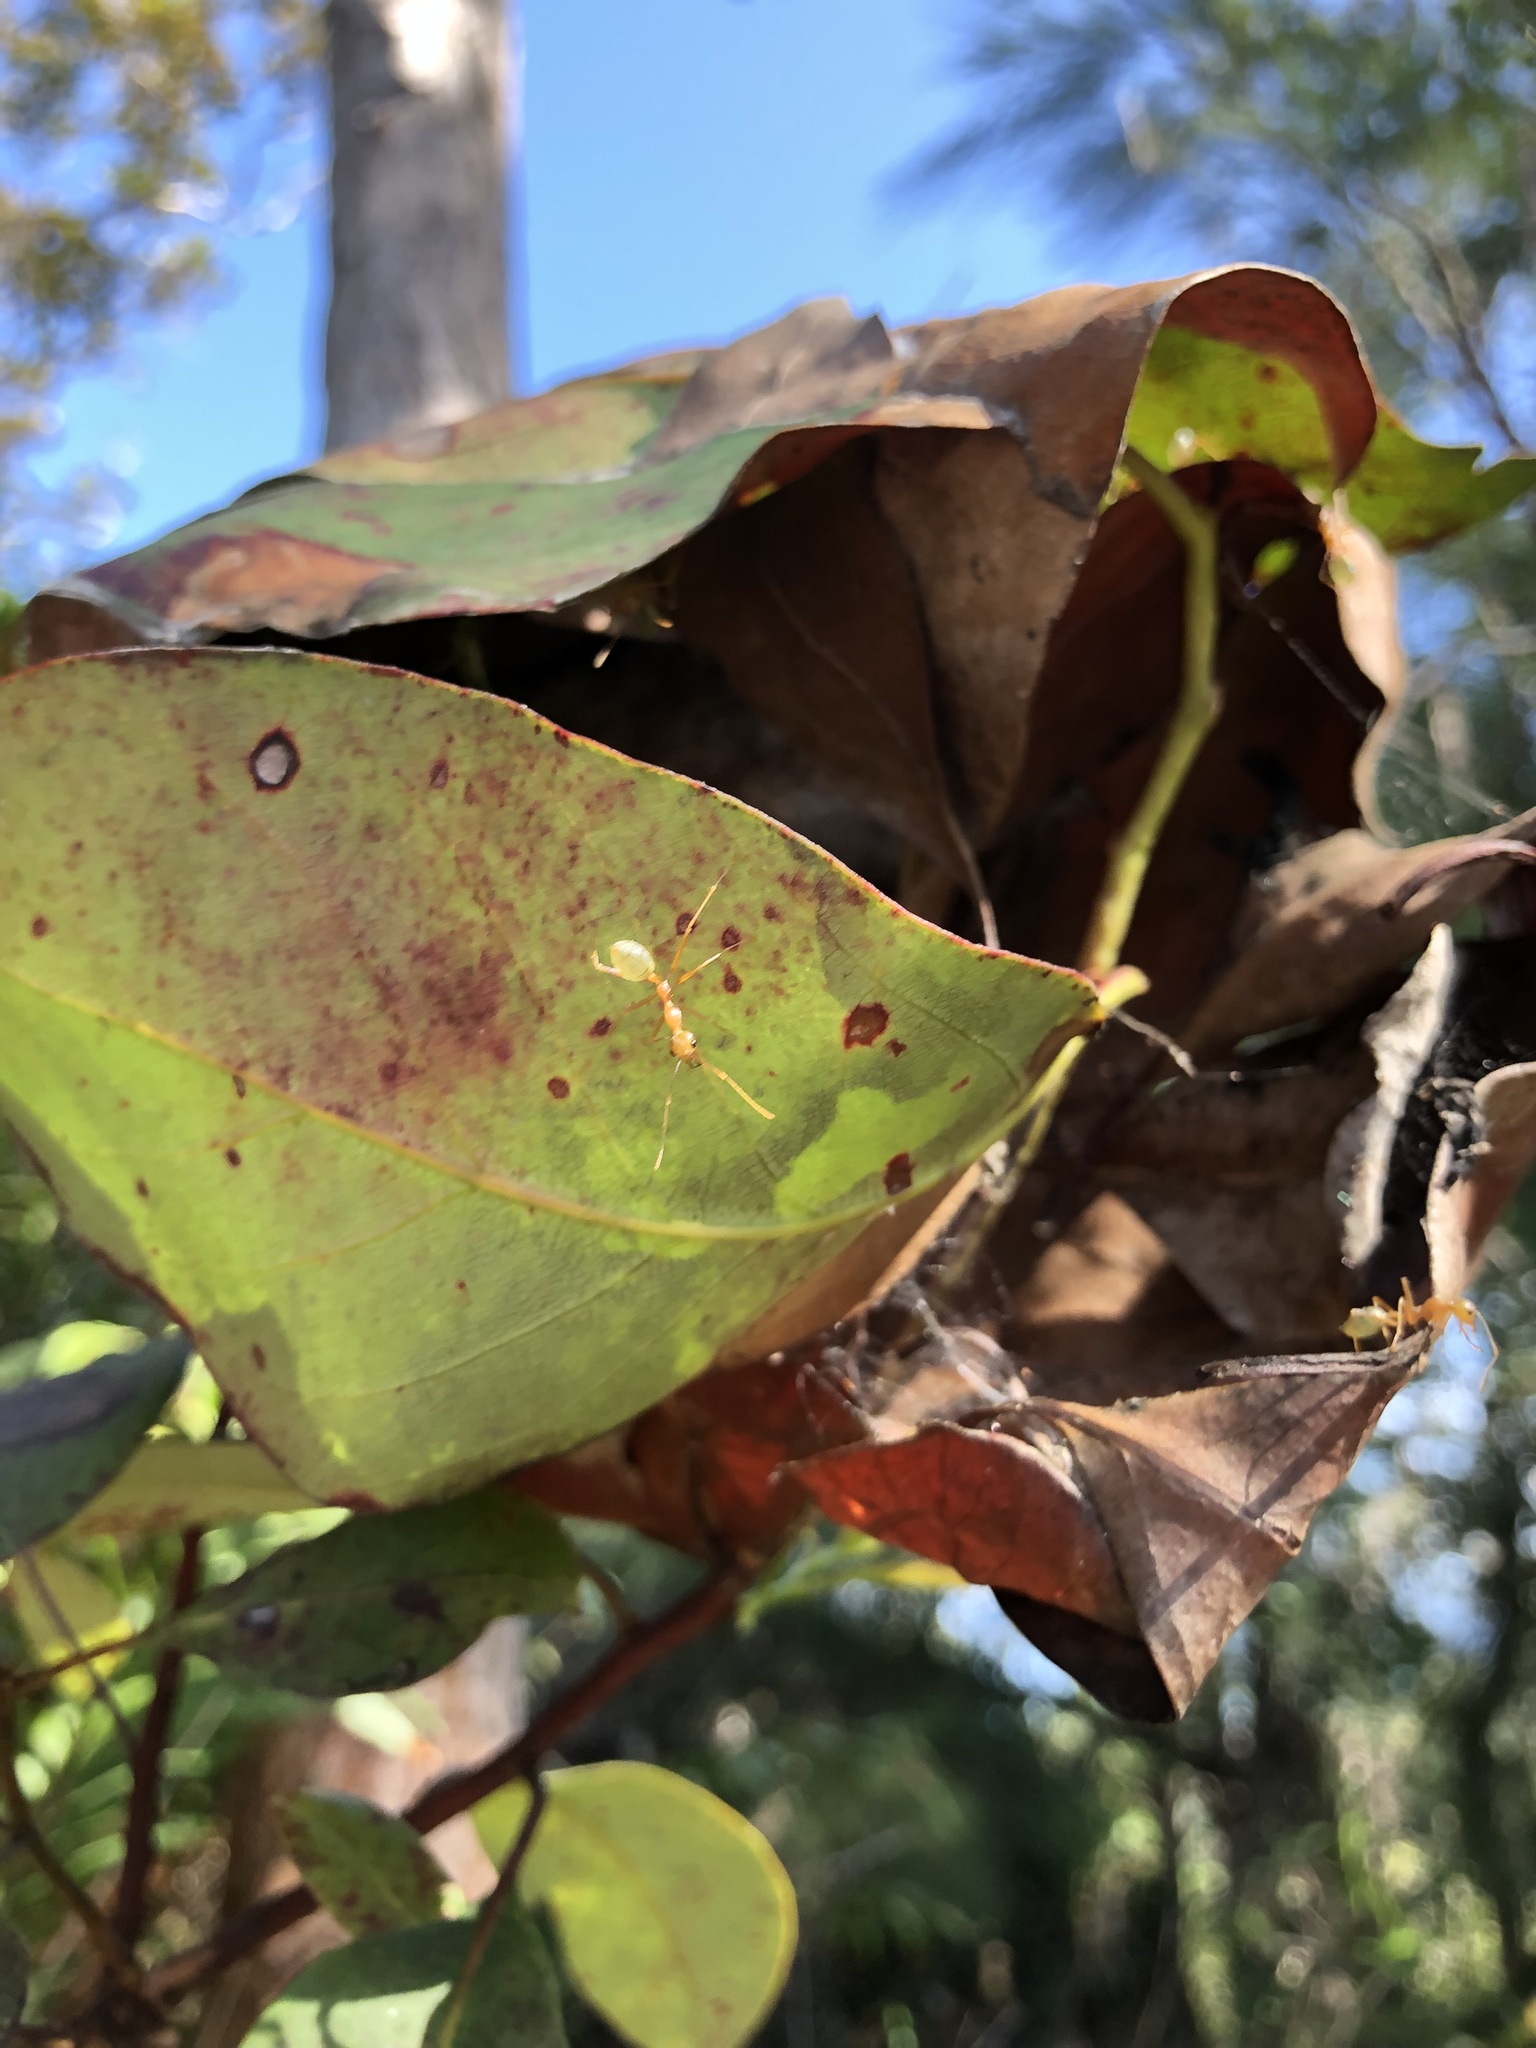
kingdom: Animalia
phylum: Arthropoda
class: Insecta
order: Hymenoptera
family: Formicidae
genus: Oecophylla
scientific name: Oecophylla smaragdina
